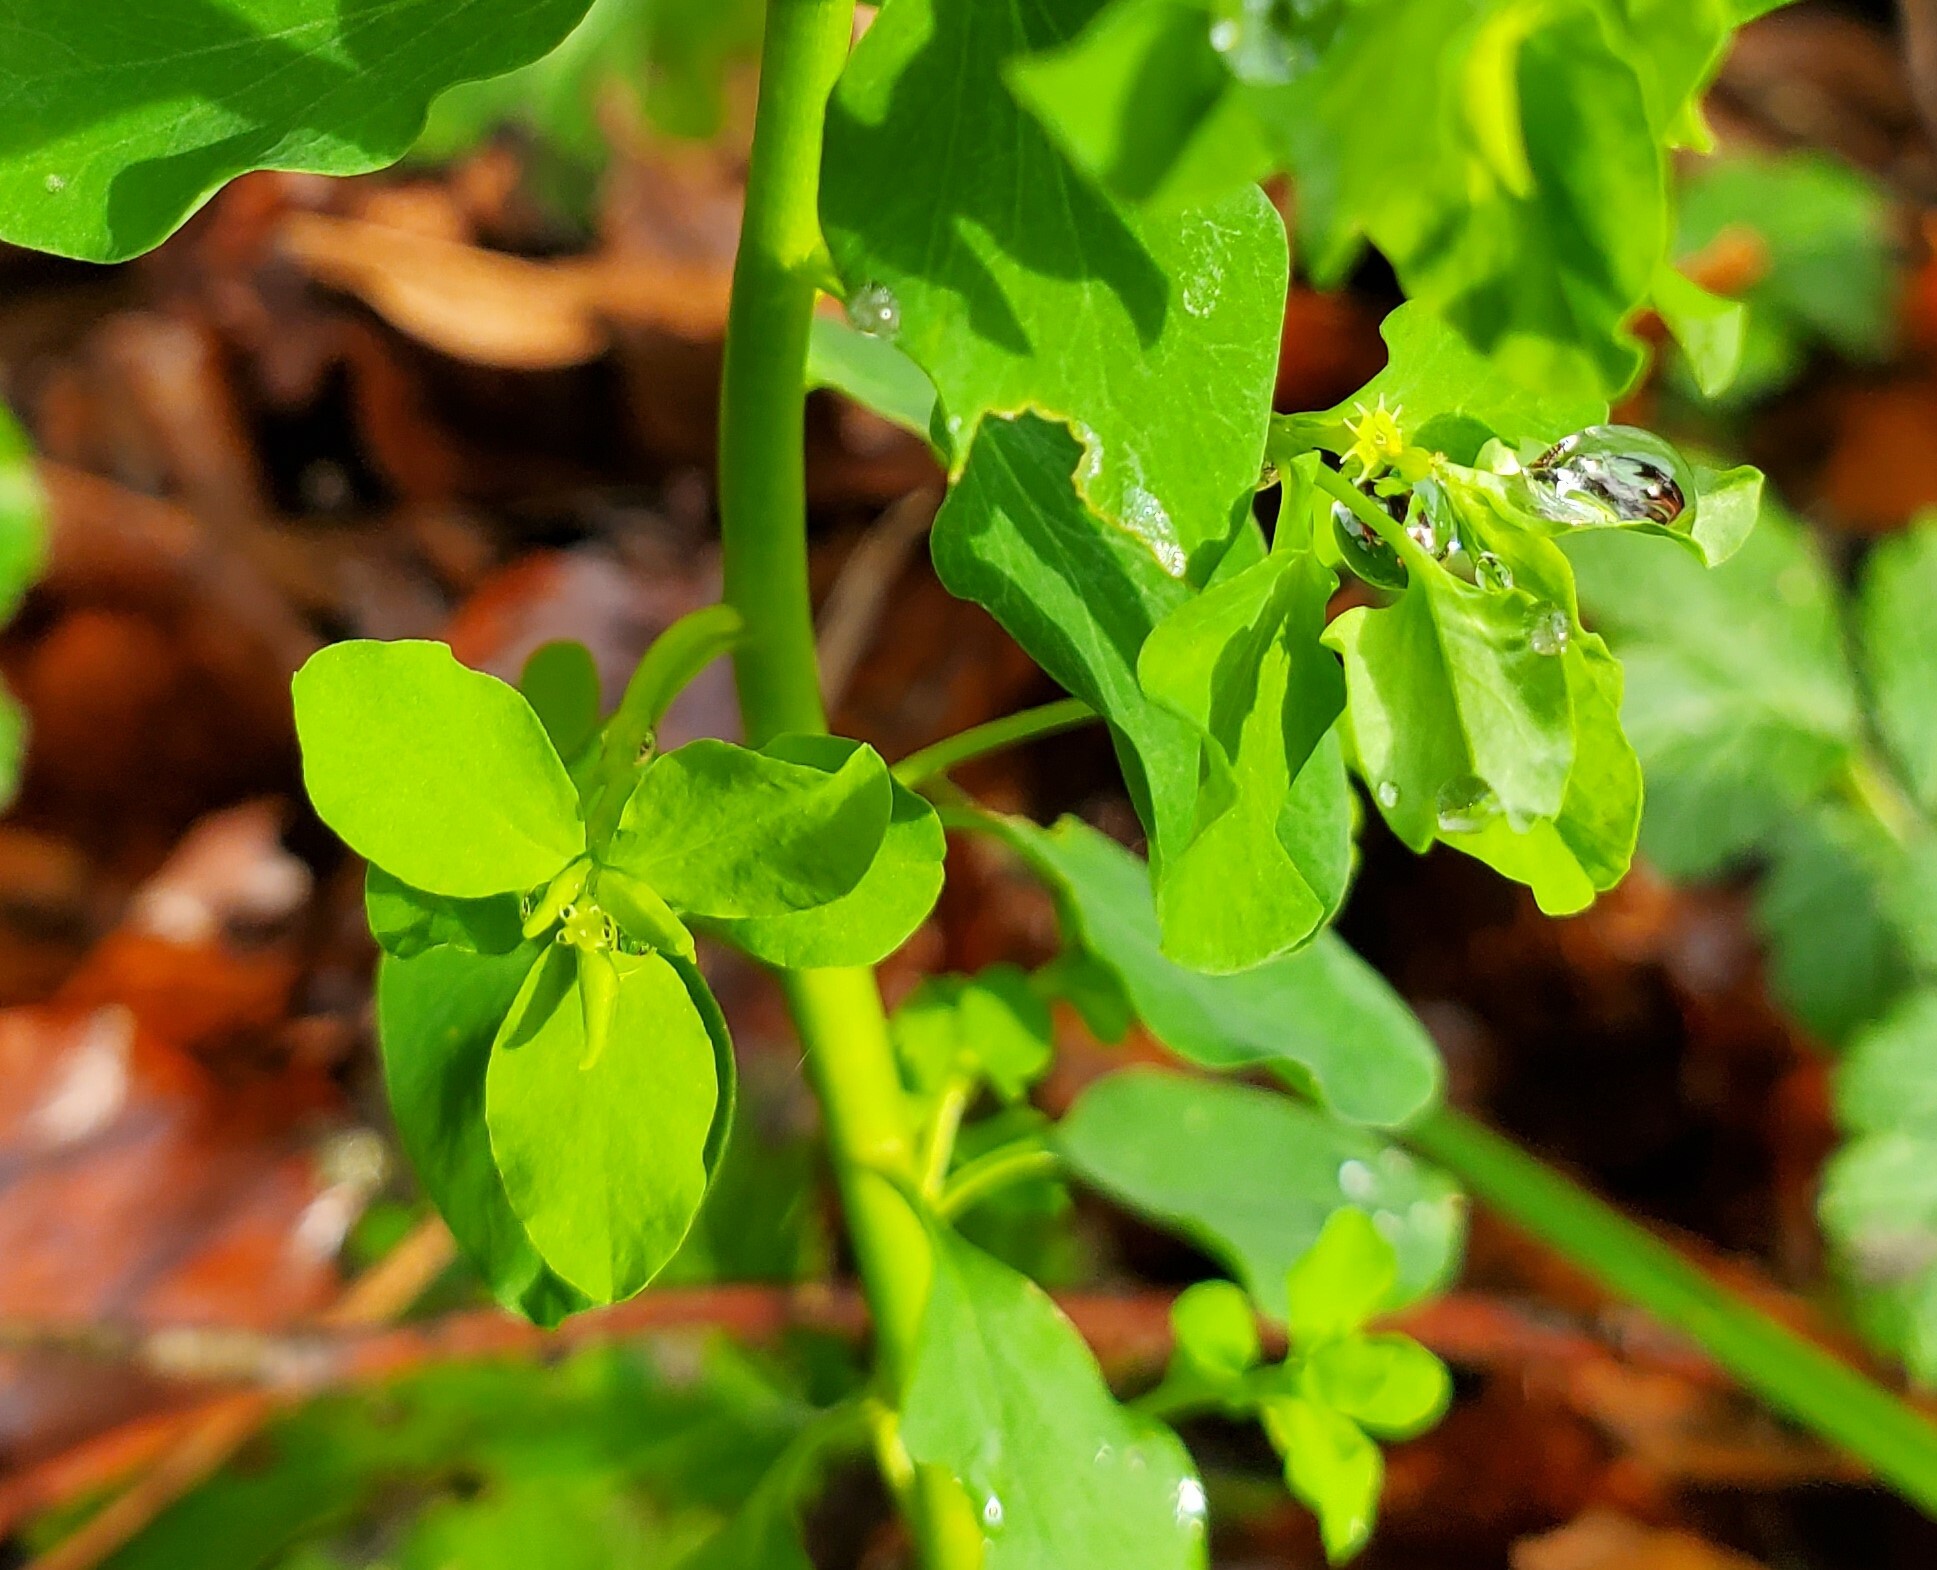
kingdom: Plantae
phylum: Tracheophyta
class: Magnoliopsida
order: Malpighiales
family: Euphorbiaceae
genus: Euphorbia
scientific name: Euphorbia peplus
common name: Petty spurge
